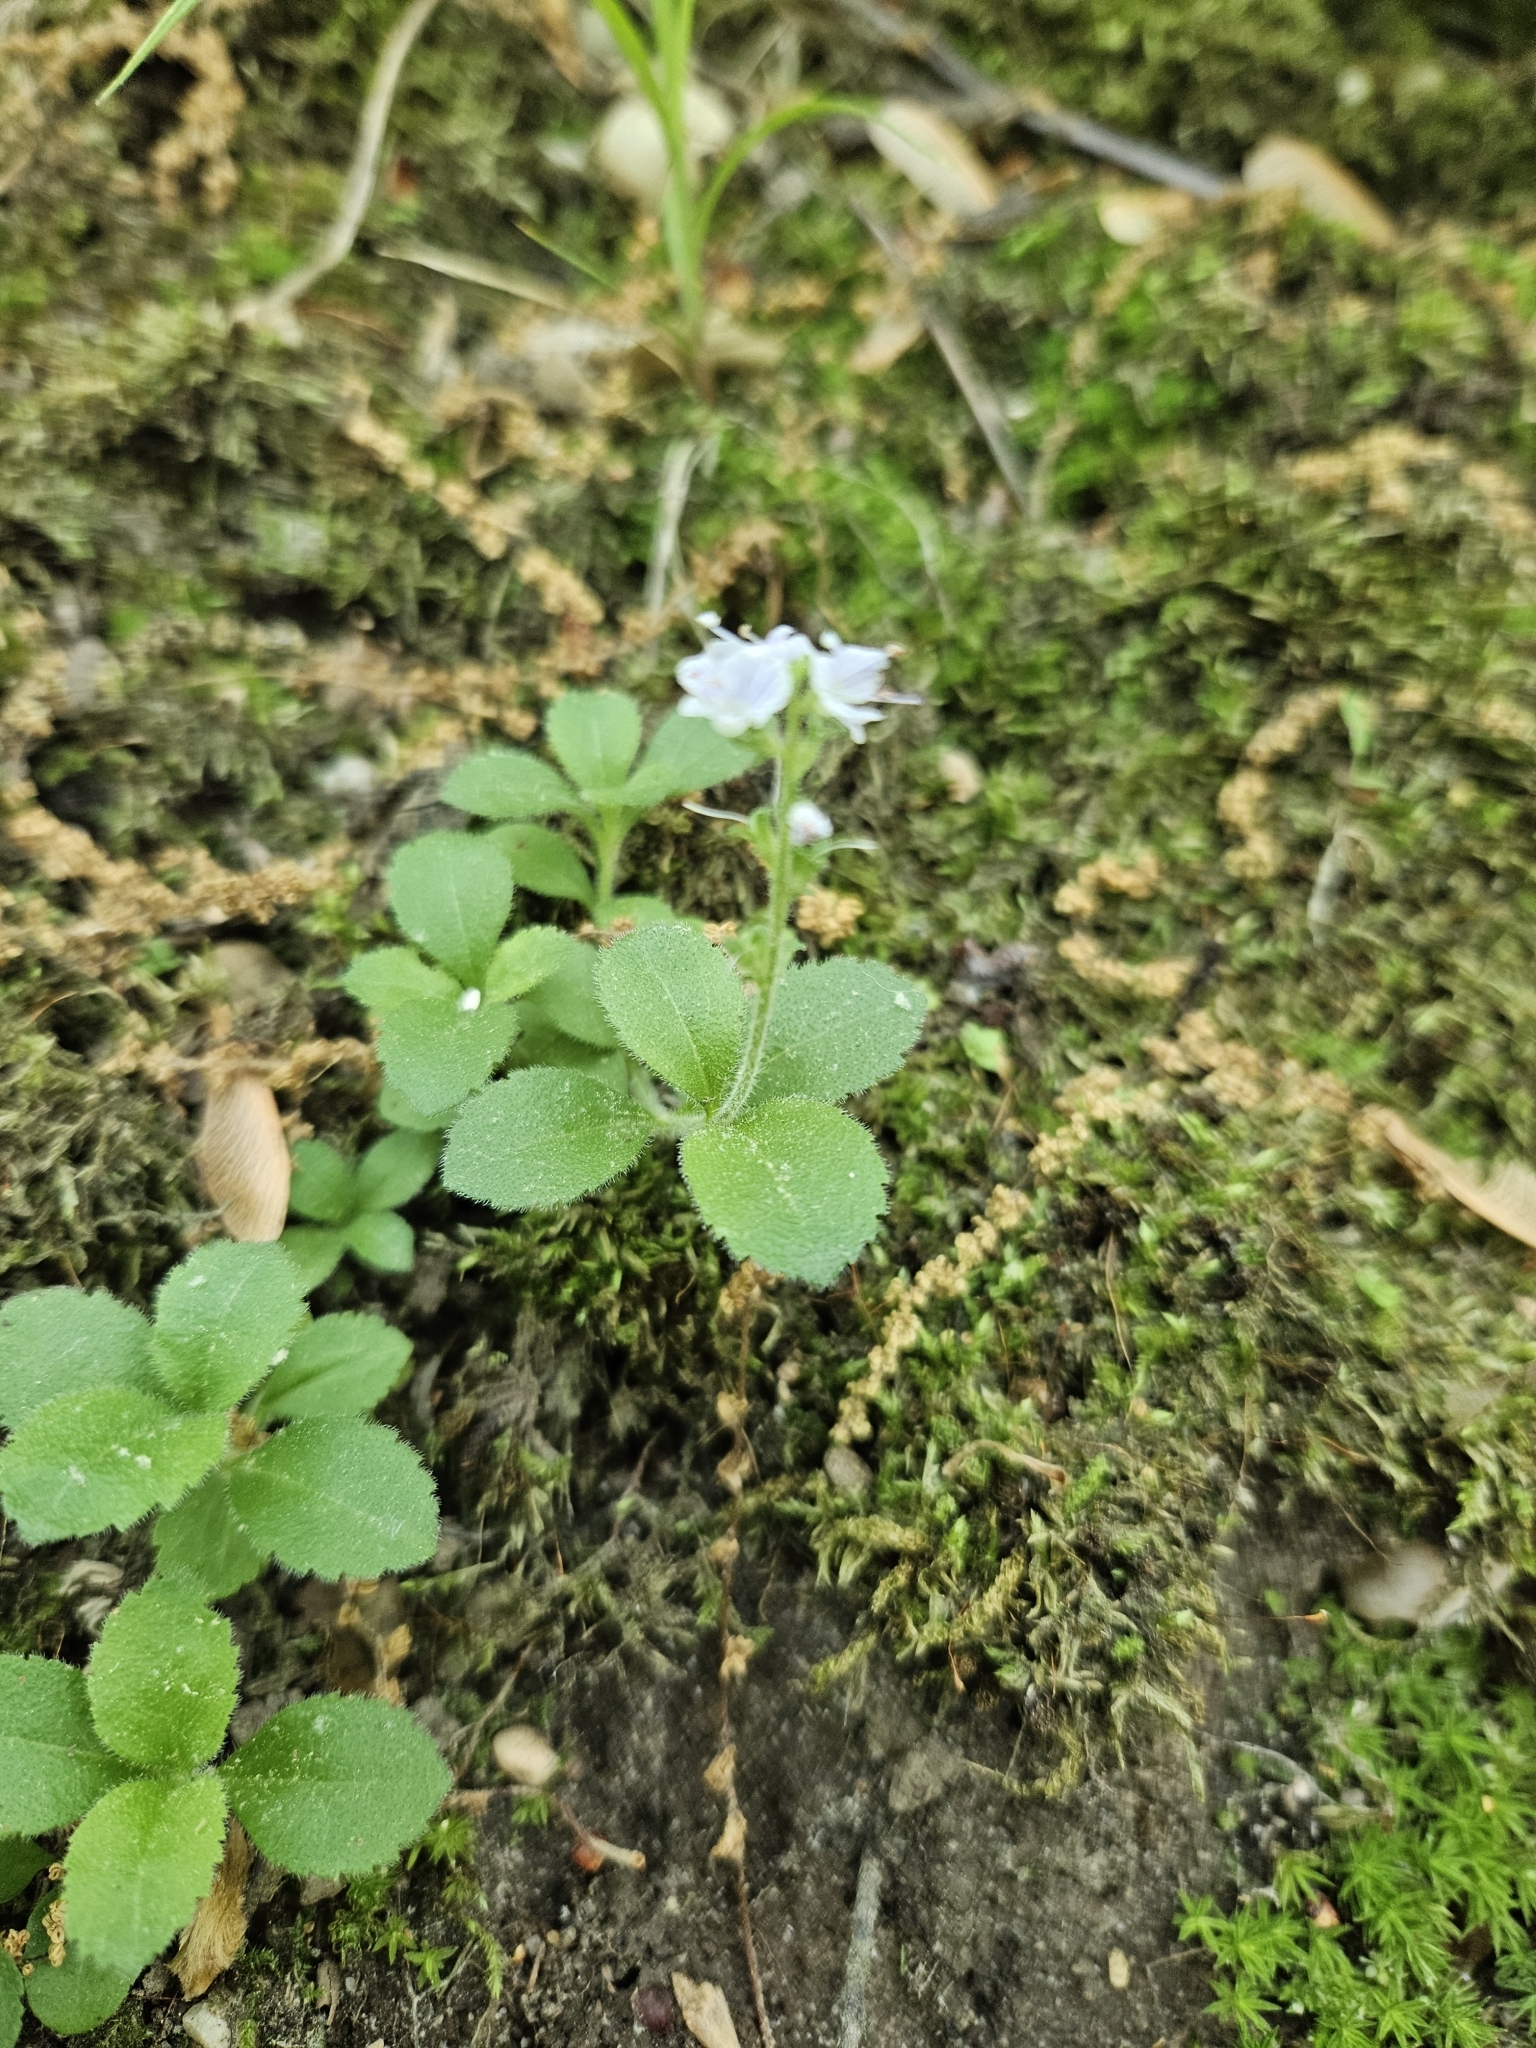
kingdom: Plantae
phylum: Tracheophyta
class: Magnoliopsida
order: Lamiales
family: Plantaginaceae
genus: Veronica
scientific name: Veronica serpyllifolia
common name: Thyme-leaved speedwell
